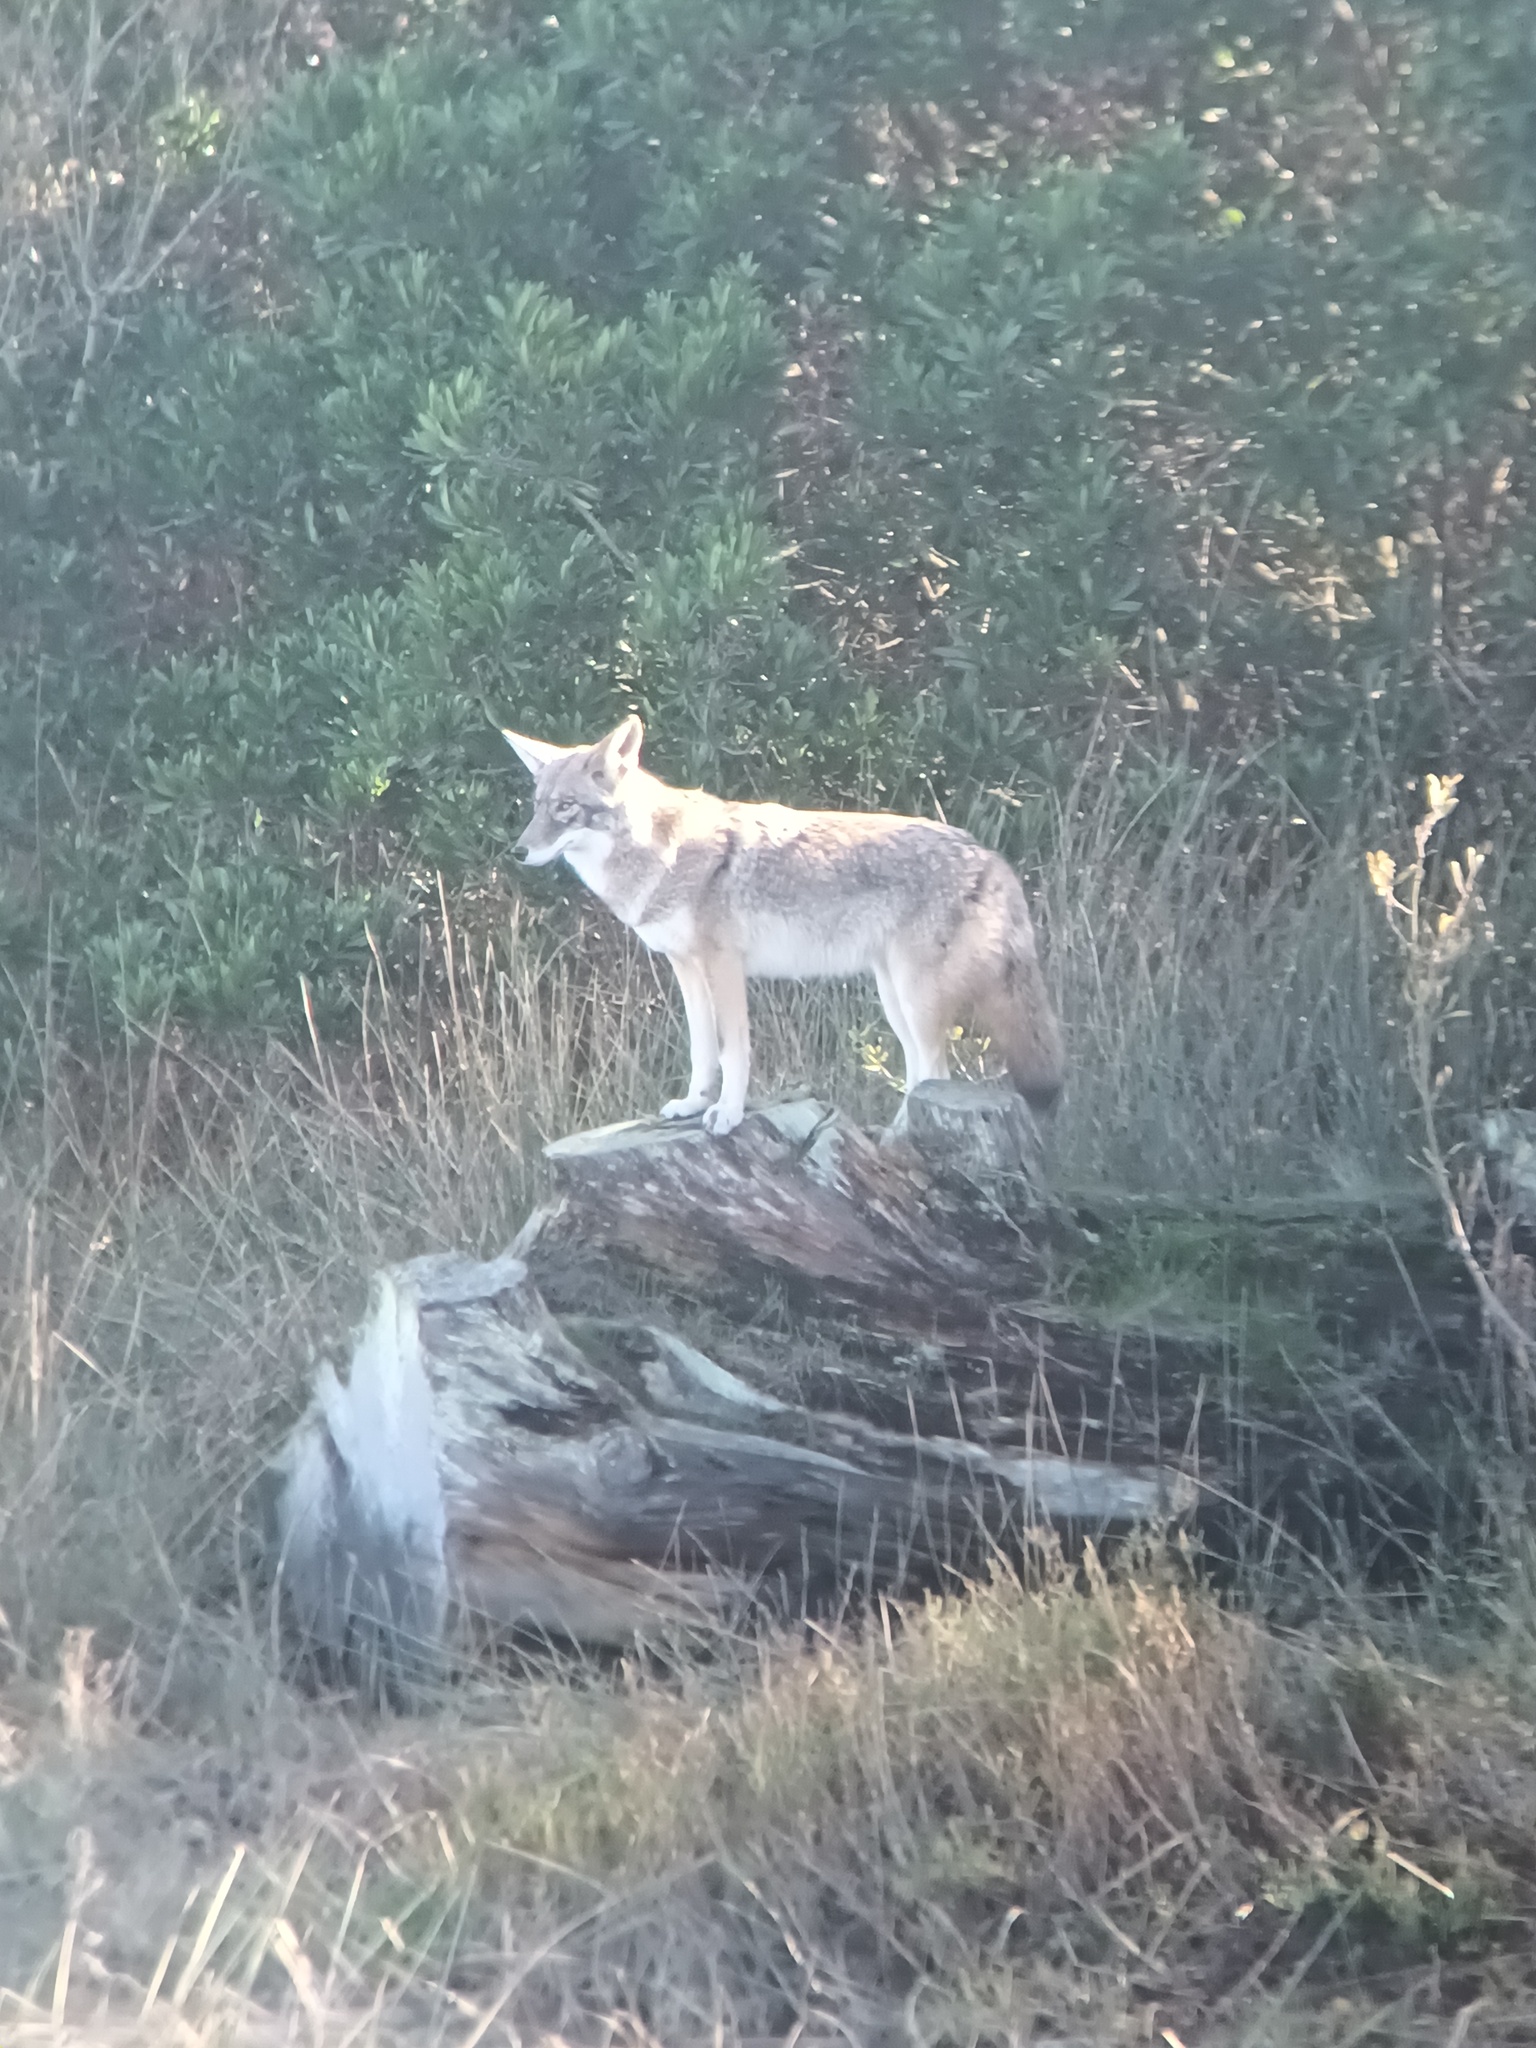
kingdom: Animalia
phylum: Chordata
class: Mammalia
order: Carnivora
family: Canidae
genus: Canis
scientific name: Canis latrans
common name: Coyote
